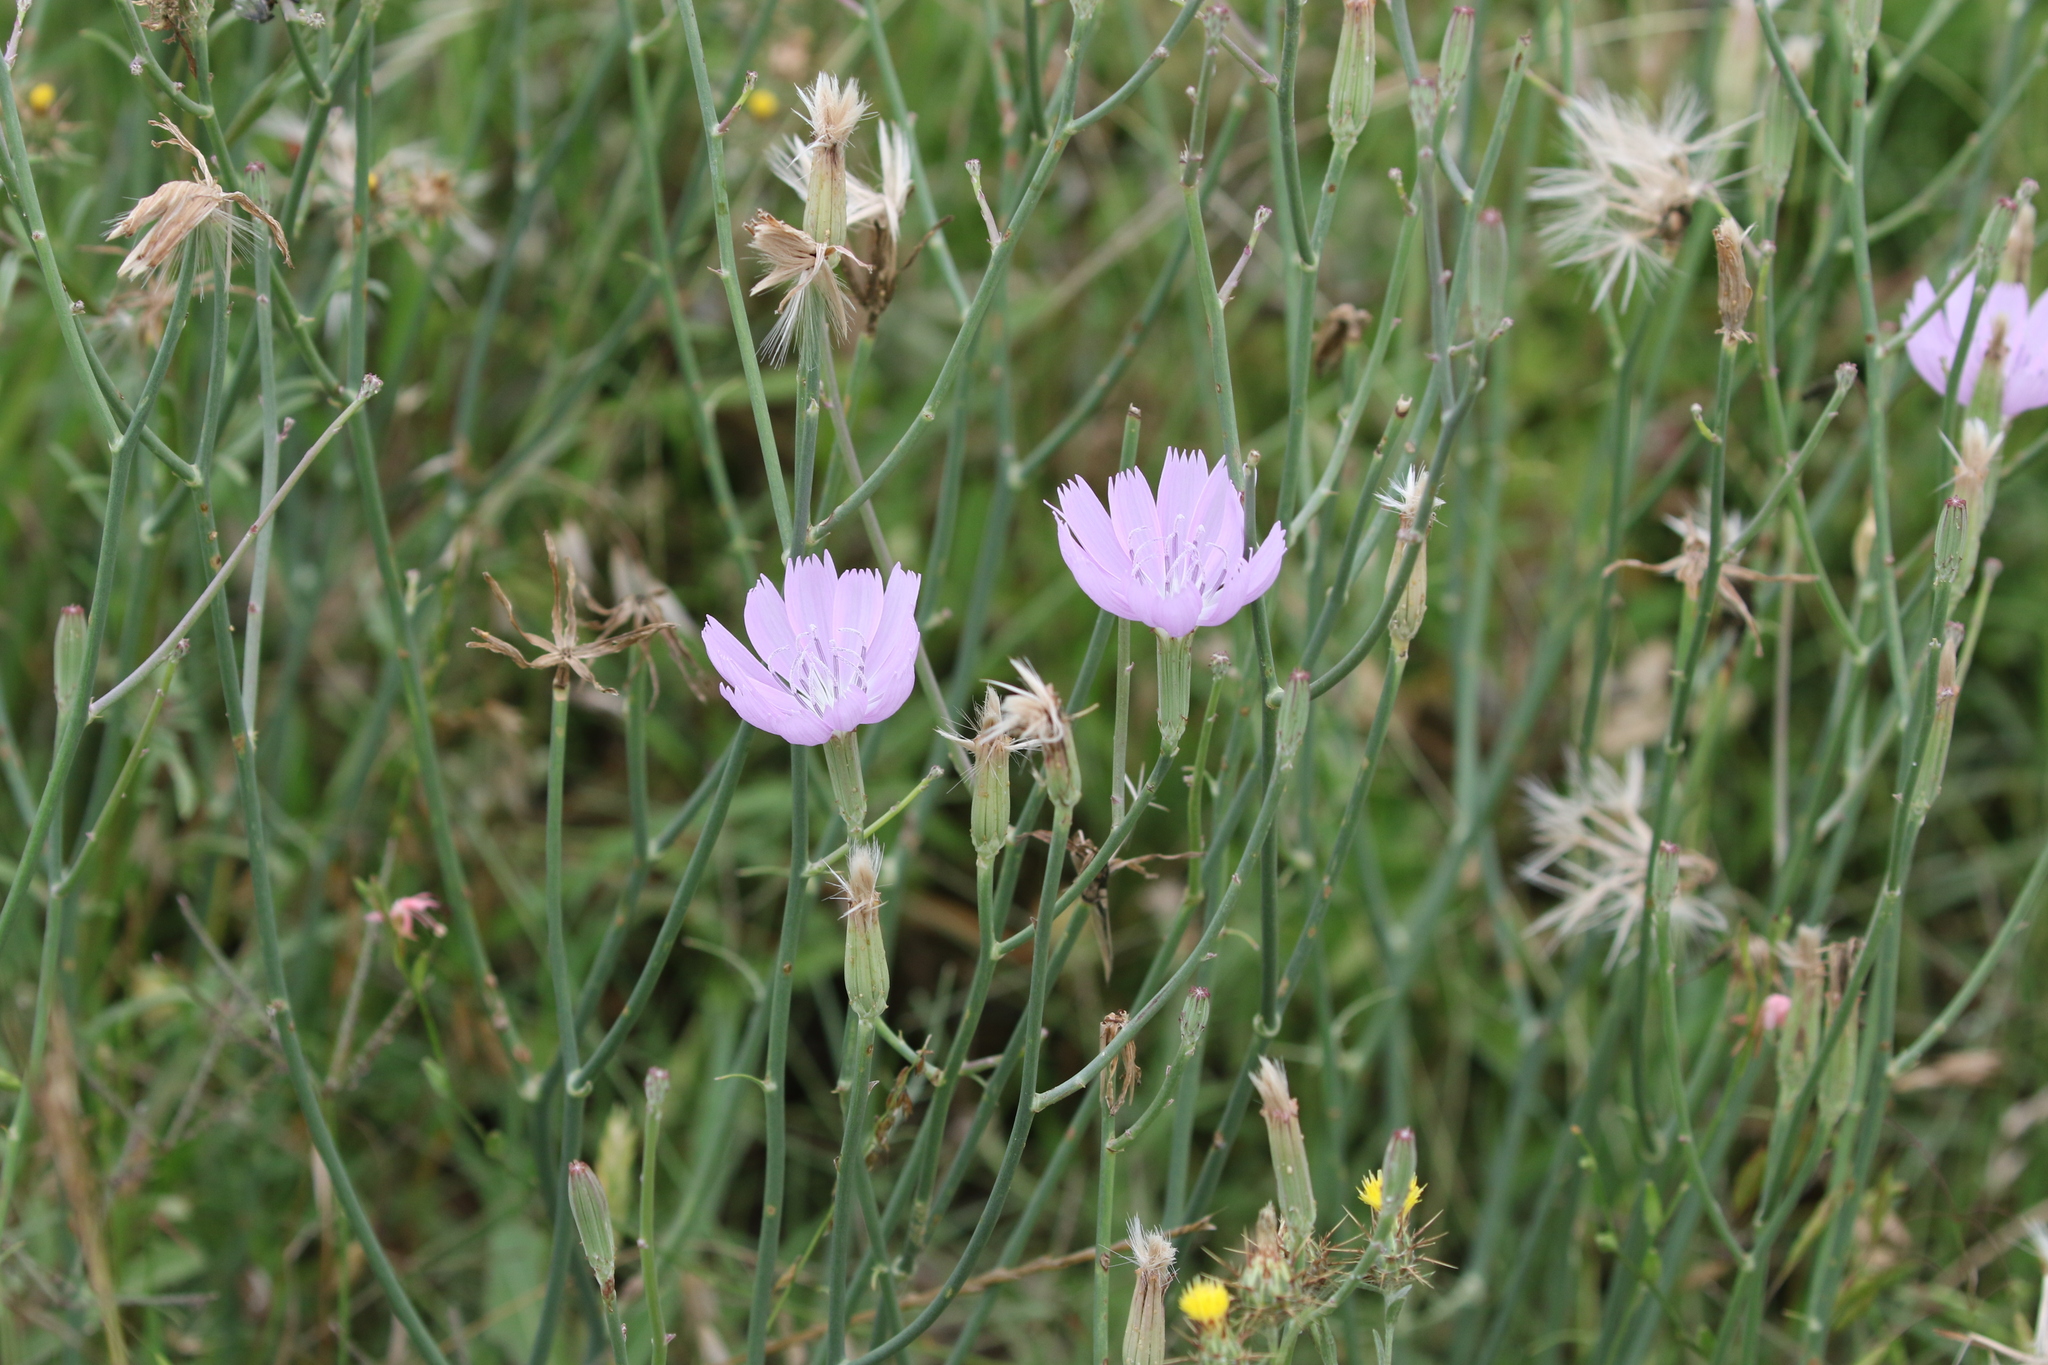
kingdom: Plantae
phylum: Tracheophyta
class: Magnoliopsida
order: Asterales
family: Asteraceae
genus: Lygodesmia
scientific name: Lygodesmia texana
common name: Texas skeleton-plant
